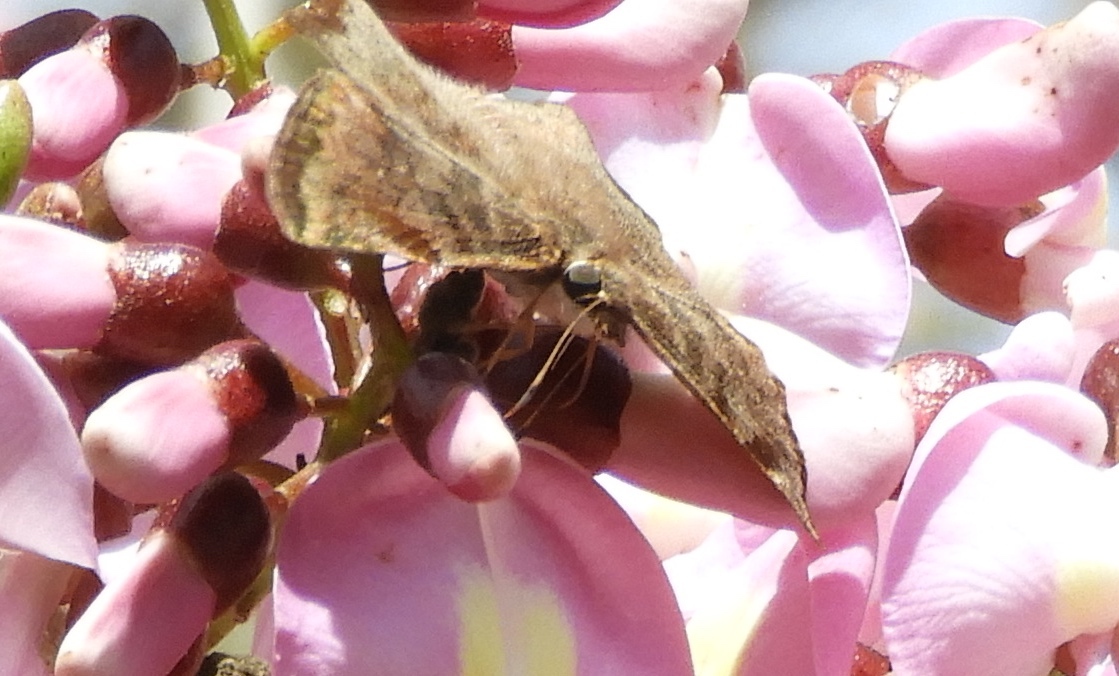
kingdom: Animalia
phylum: Arthropoda
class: Insecta
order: Lepidoptera
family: Hesperiidae
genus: Antigonus
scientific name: Antigonus erosus
